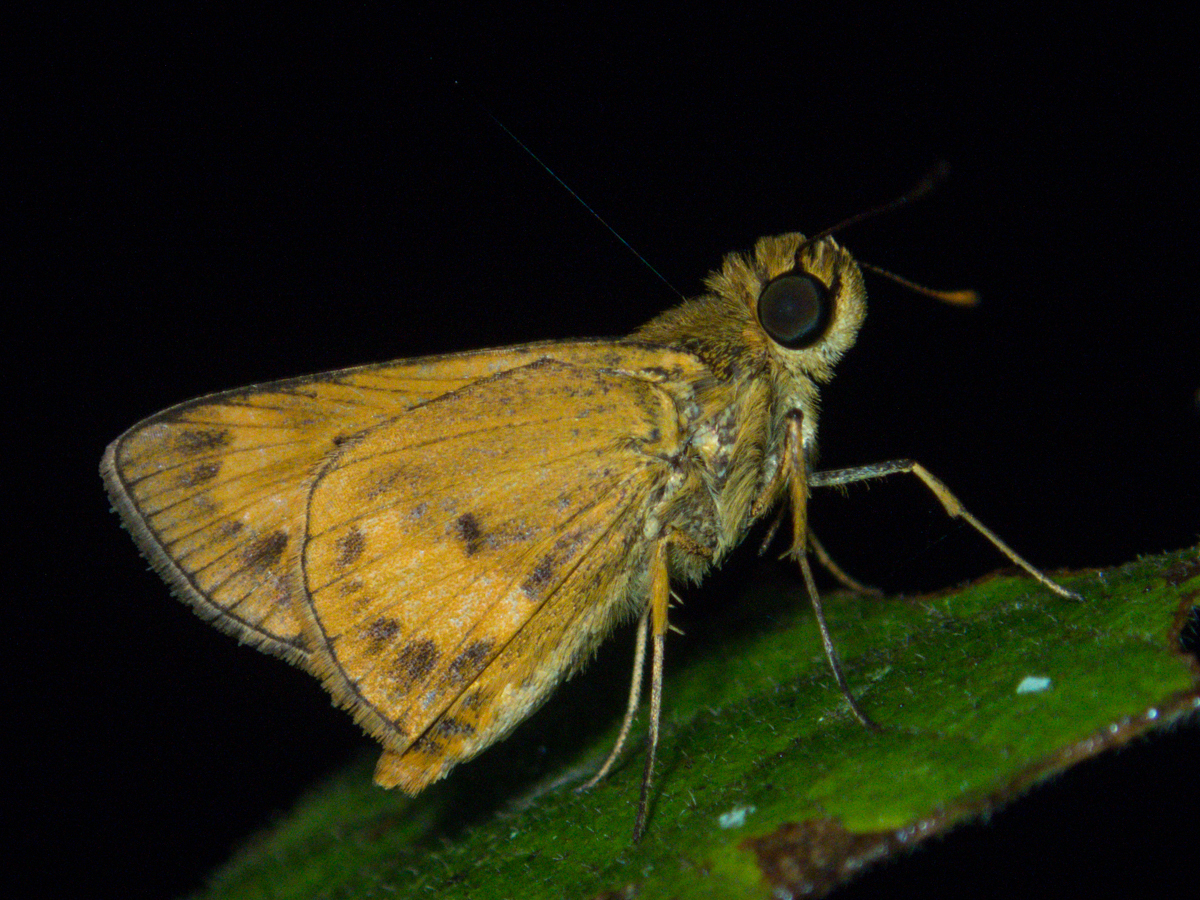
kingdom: Animalia
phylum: Arthropoda
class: Insecta
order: Lepidoptera
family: Hesperiidae
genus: Oriens
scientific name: Oriens gola
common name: Common dartlet
